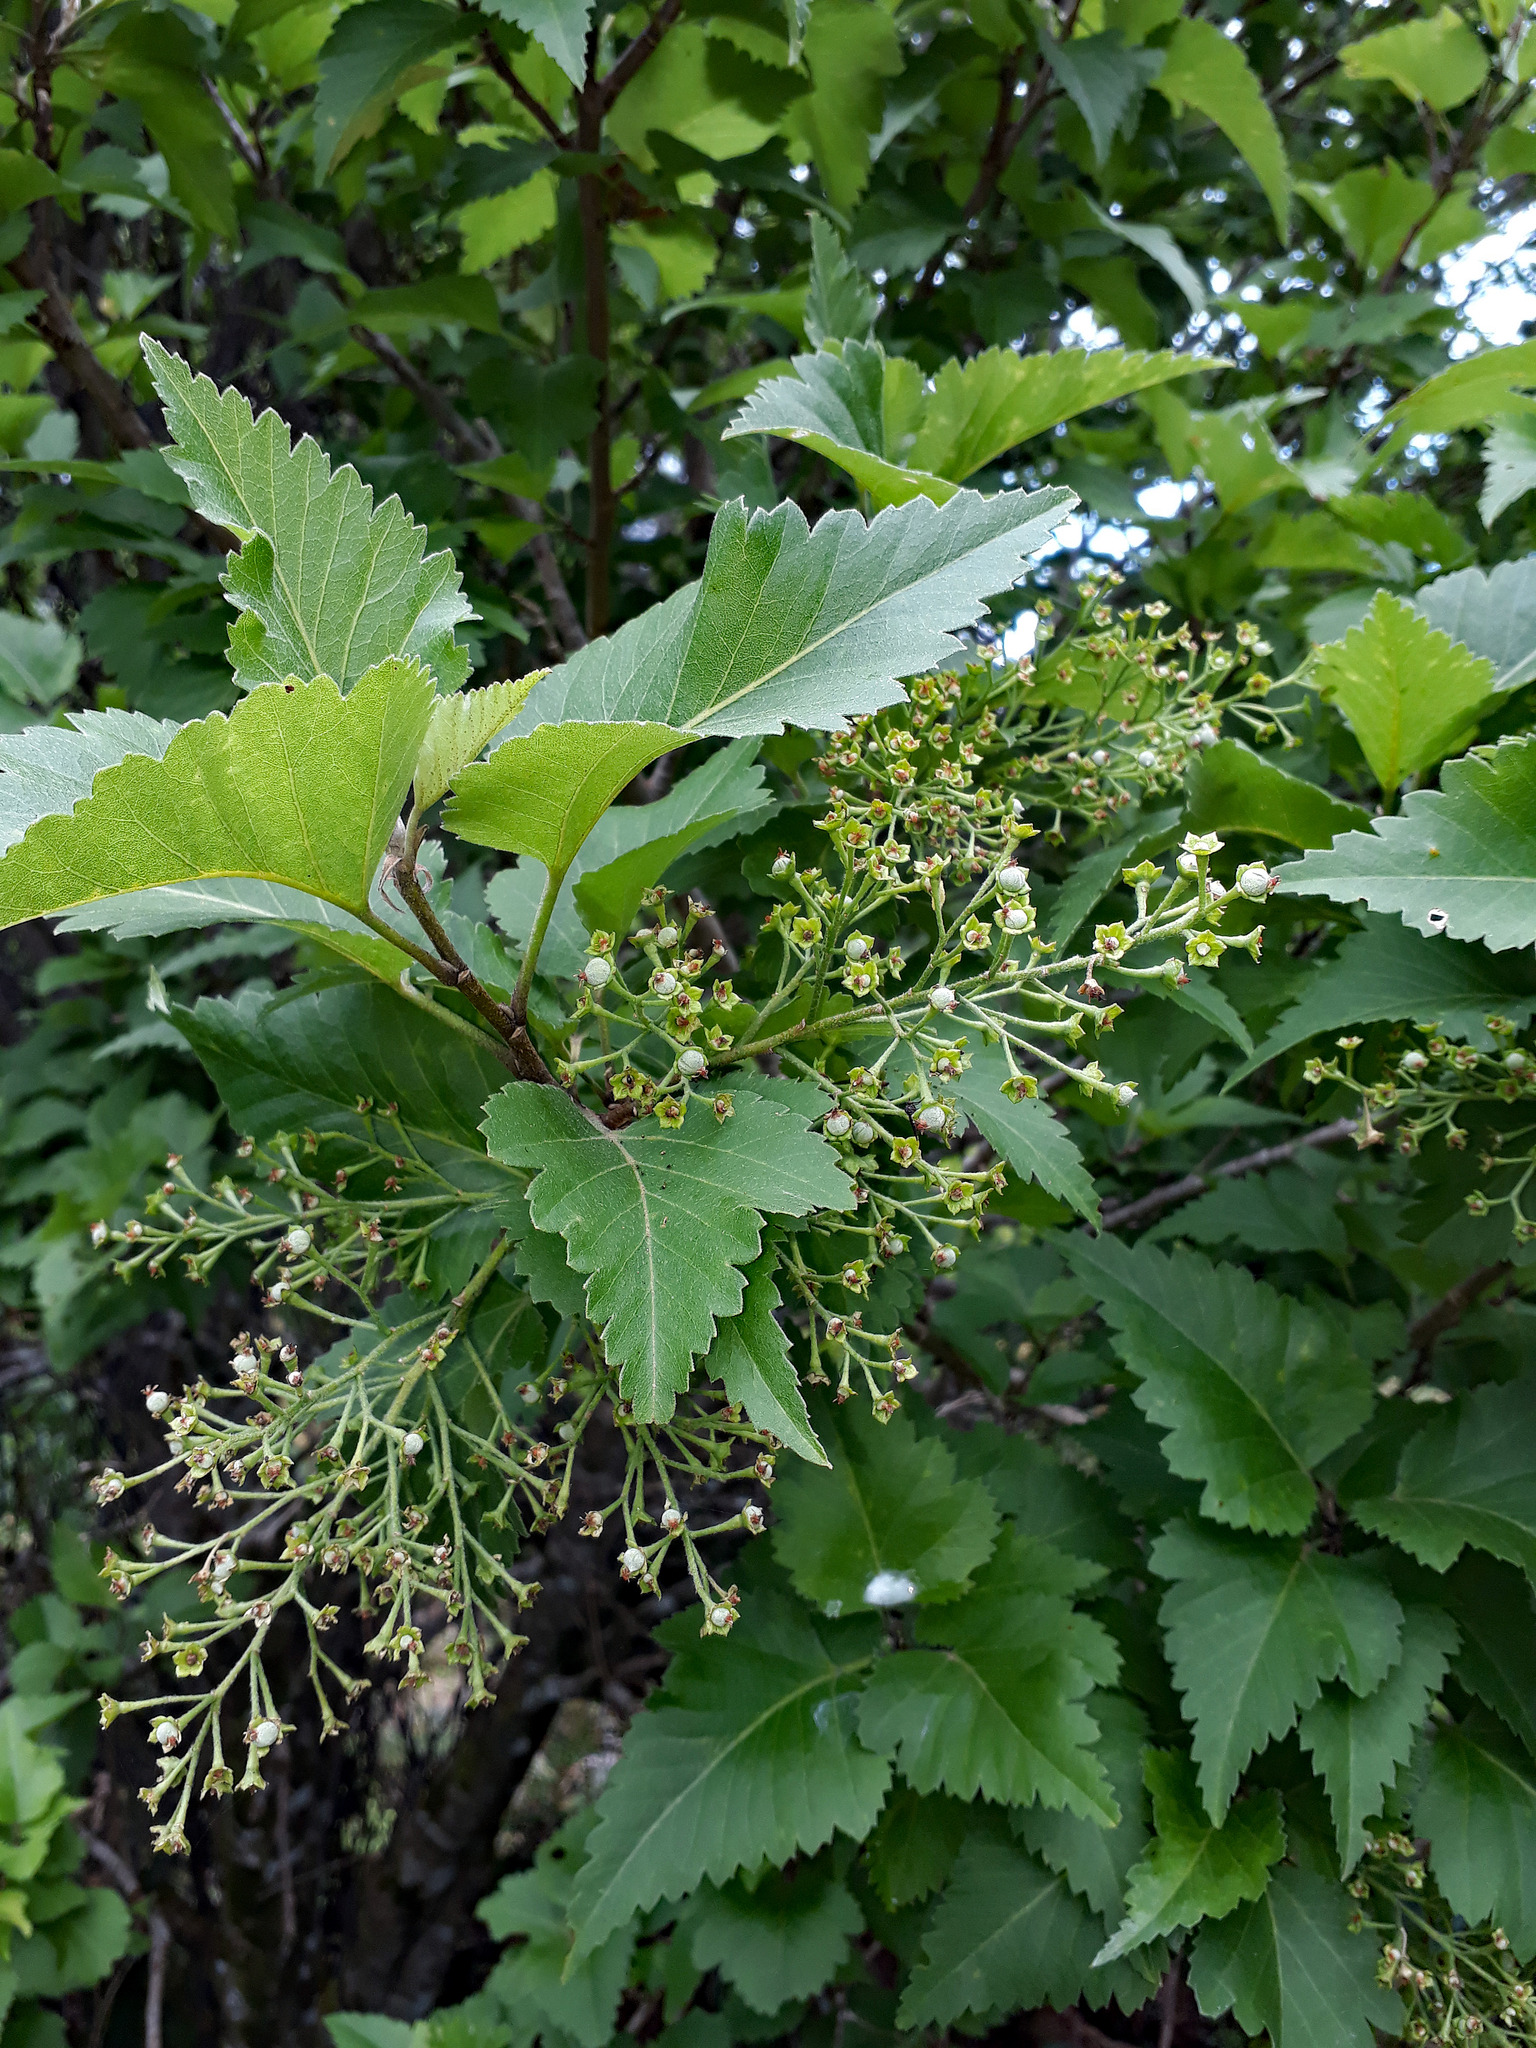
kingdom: Plantae
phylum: Tracheophyta
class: Magnoliopsida
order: Malvales
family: Malvaceae
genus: Plagianthus
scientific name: Plagianthus regius
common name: Manatu
